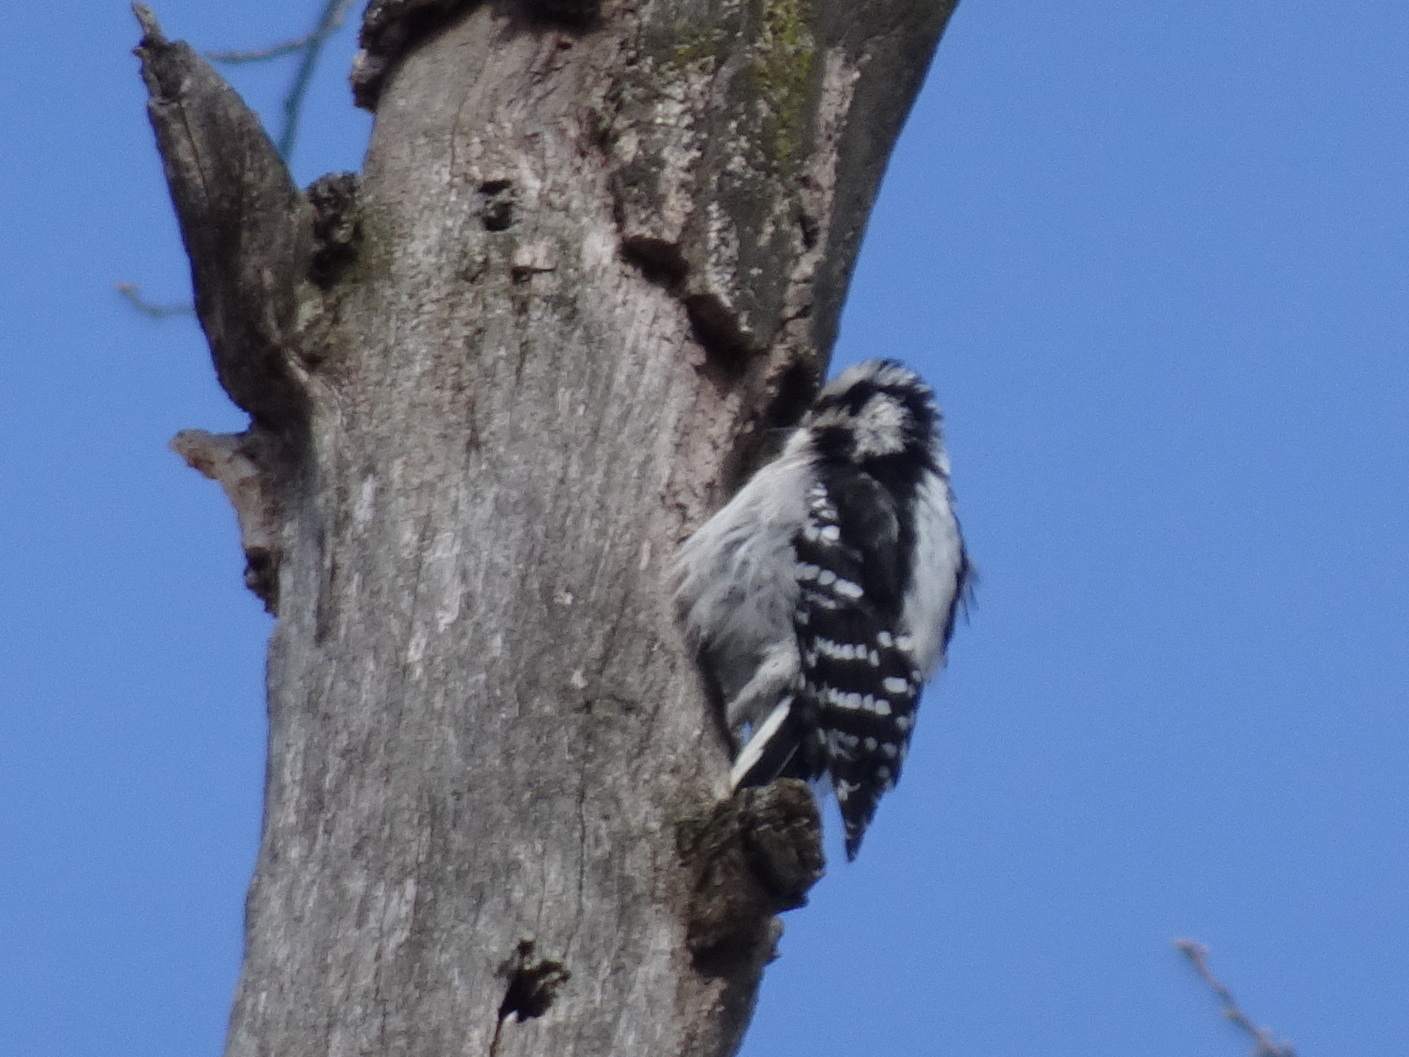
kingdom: Animalia
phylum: Chordata
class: Aves
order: Piciformes
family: Picidae
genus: Dryobates
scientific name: Dryobates pubescens
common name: Downy woodpecker
